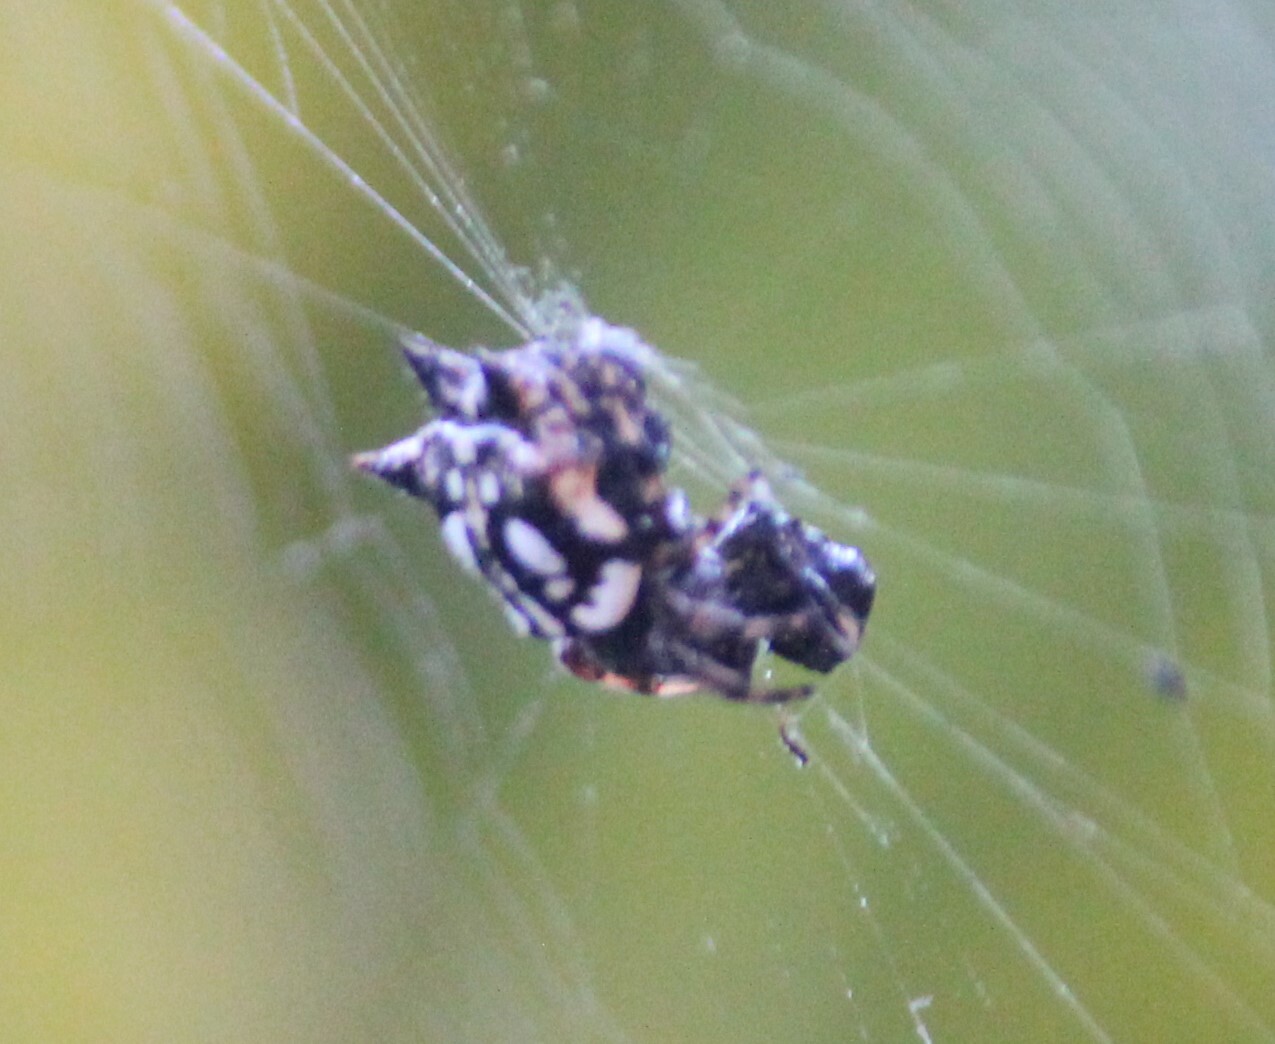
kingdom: Animalia
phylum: Arthropoda
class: Arachnida
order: Araneae
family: Araneidae
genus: Gasteracantha
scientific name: Gasteracantha sacerdotalis
